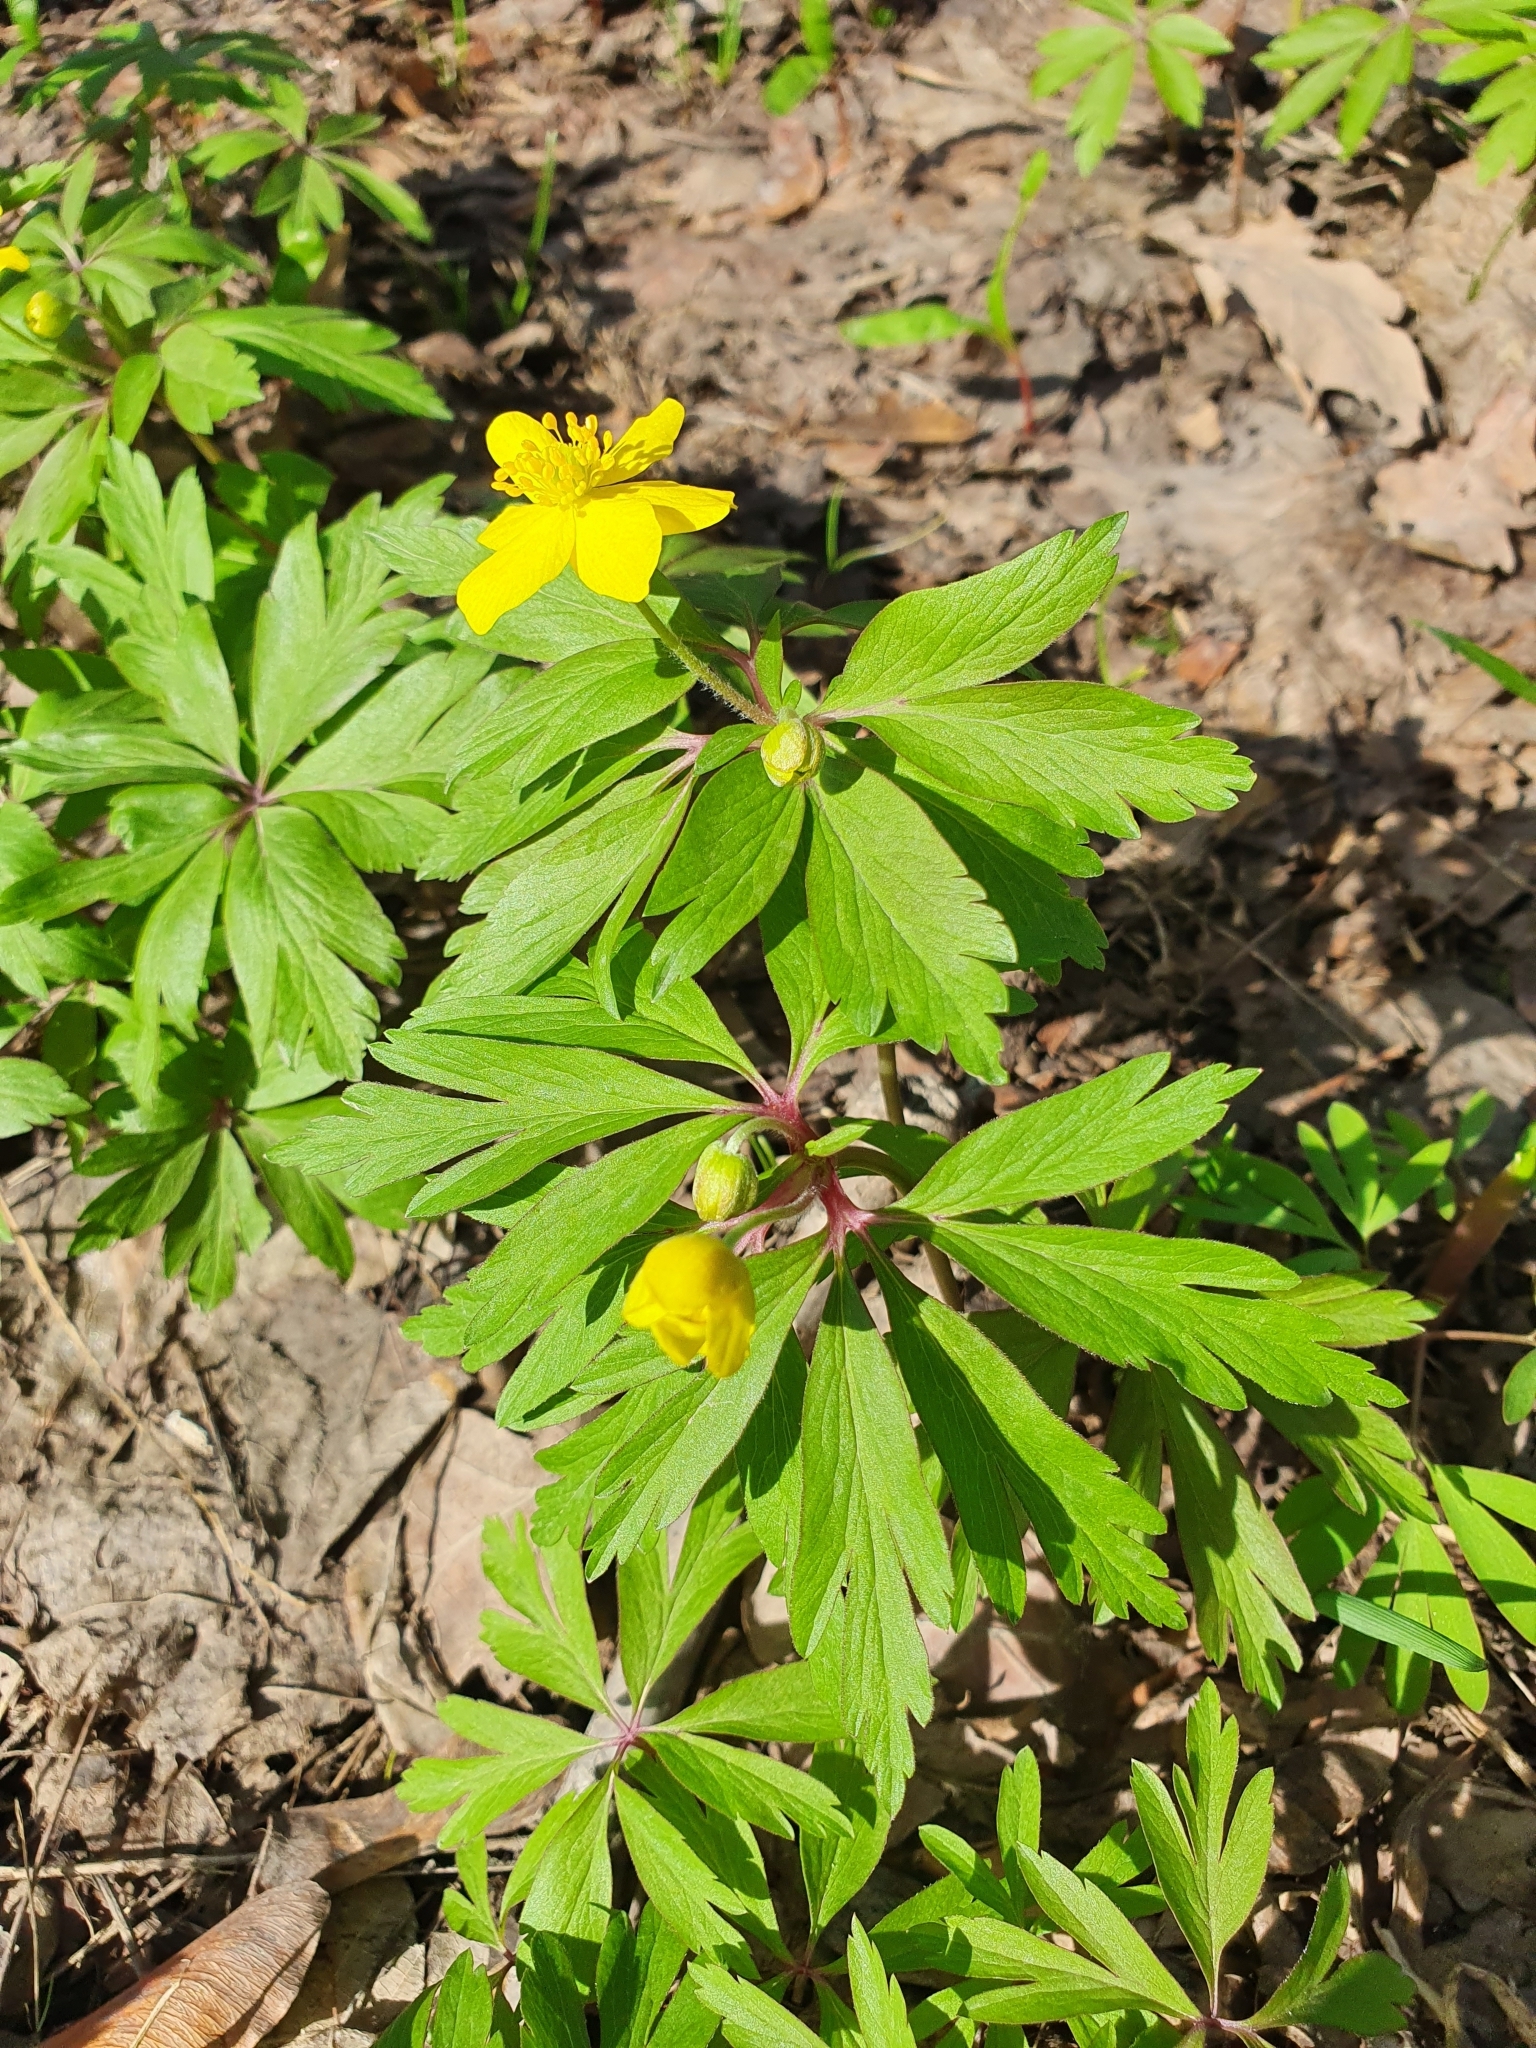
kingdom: Plantae
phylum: Tracheophyta
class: Magnoliopsida
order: Ranunculales
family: Ranunculaceae
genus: Anemone
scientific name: Anemone ranunculoides
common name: Yellow anemone
